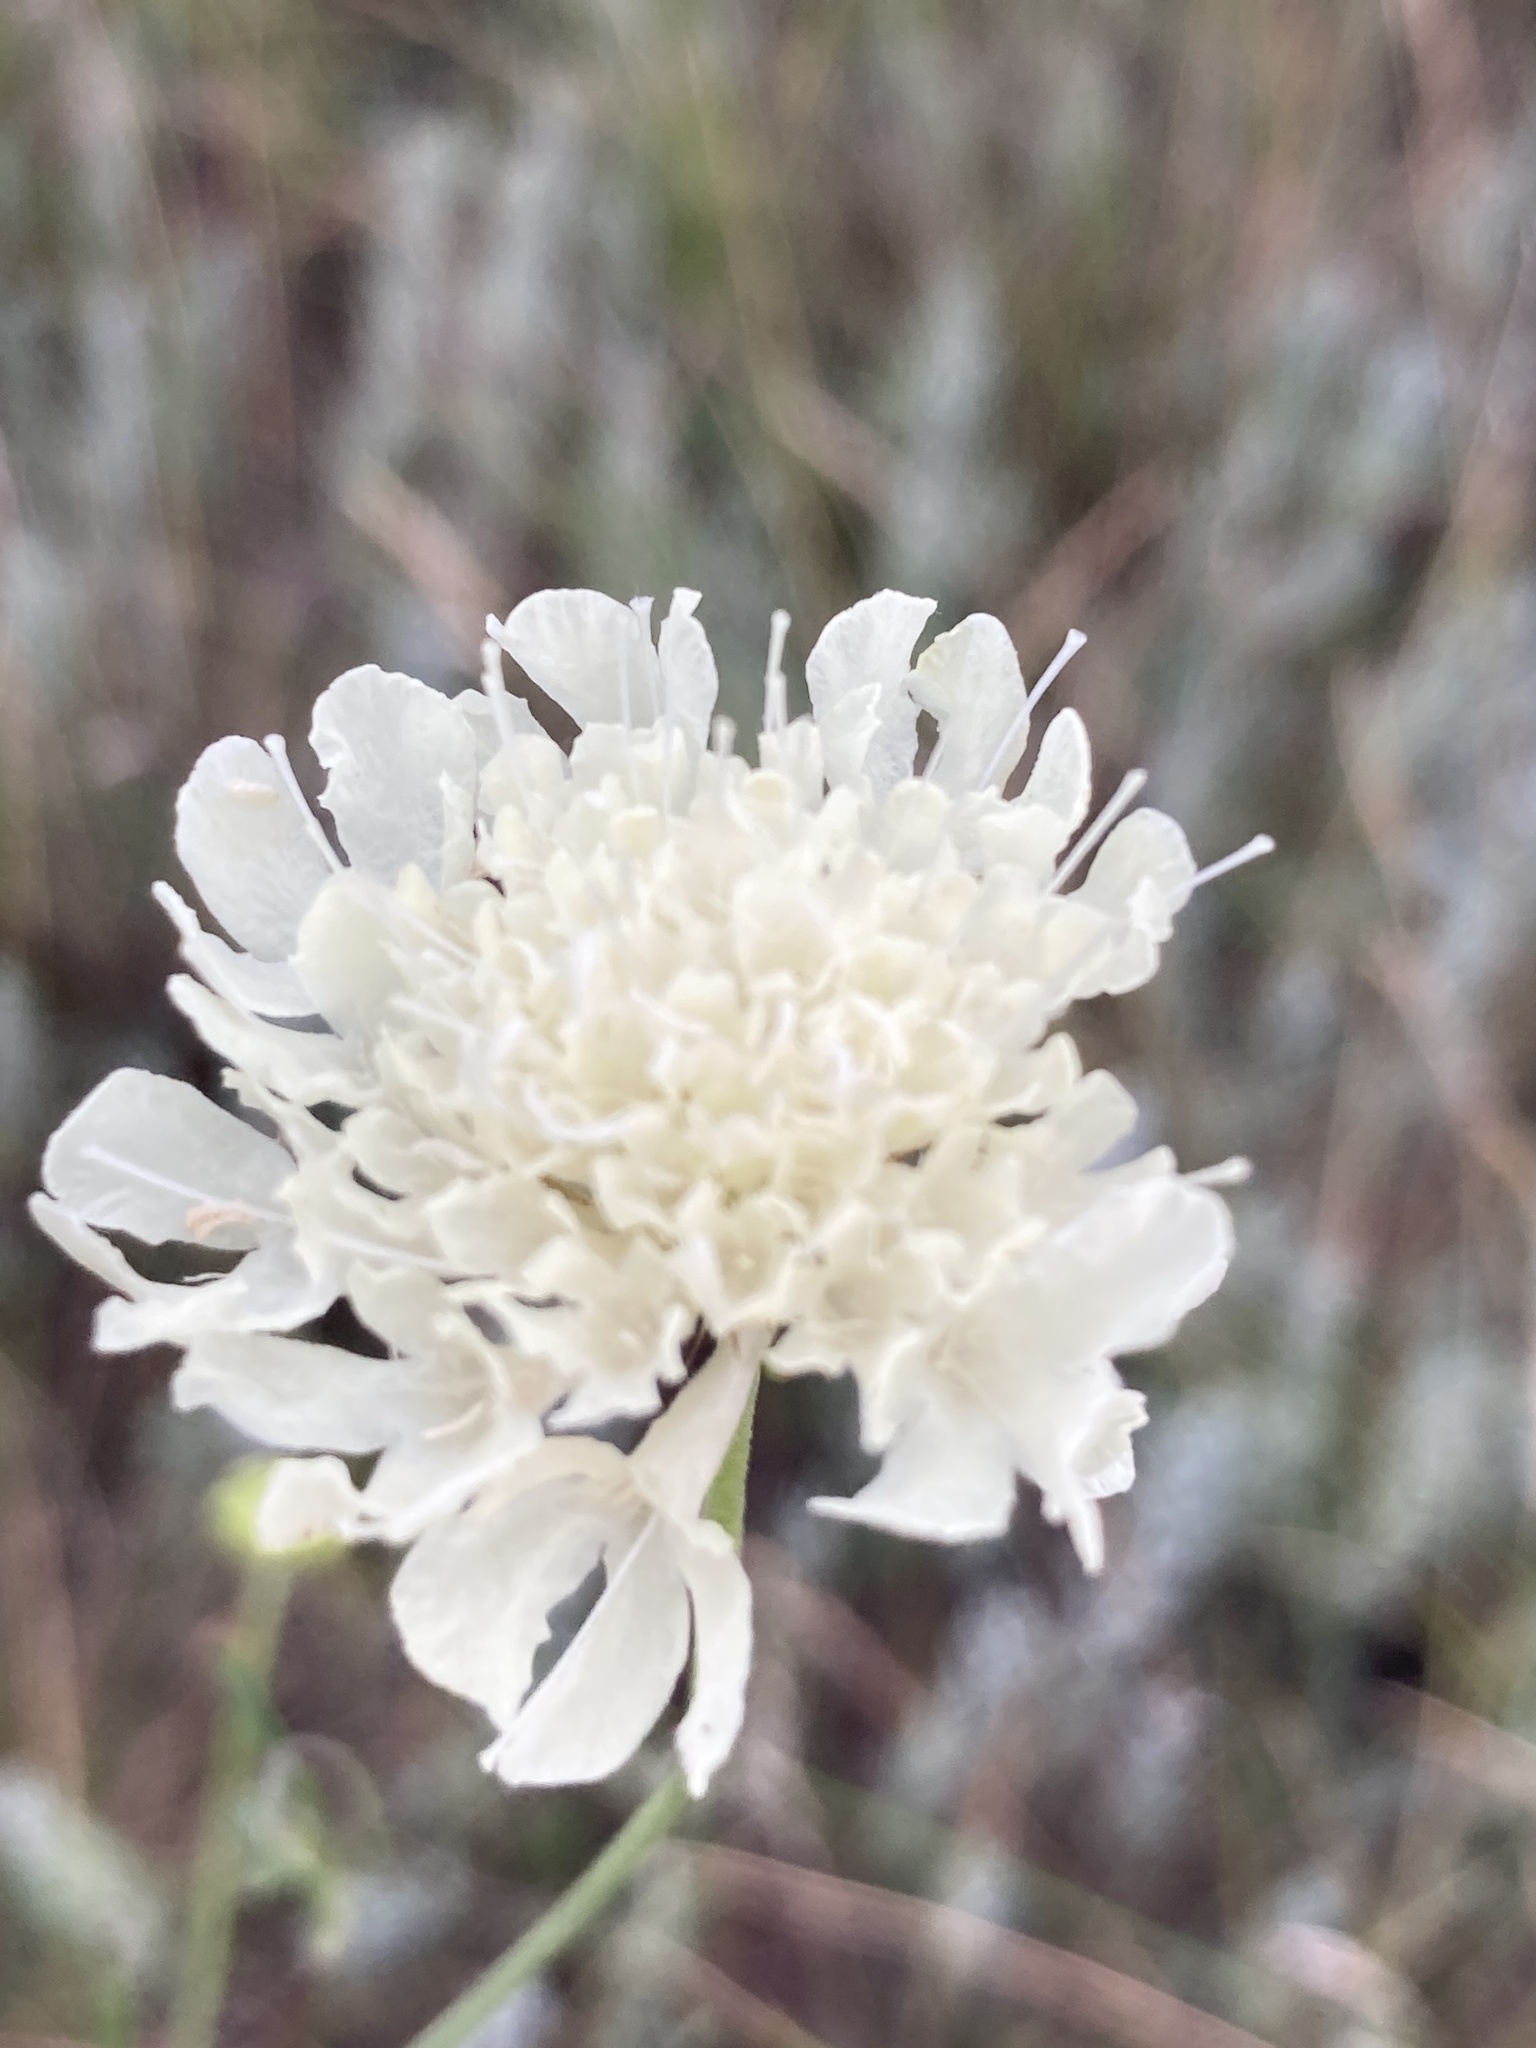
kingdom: Plantae
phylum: Tracheophyta
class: Magnoliopsida
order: Dipsacales
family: Caprifoliaceae
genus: Scabiosa
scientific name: Scabiosa ochroleuca
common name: Cream pincushions
